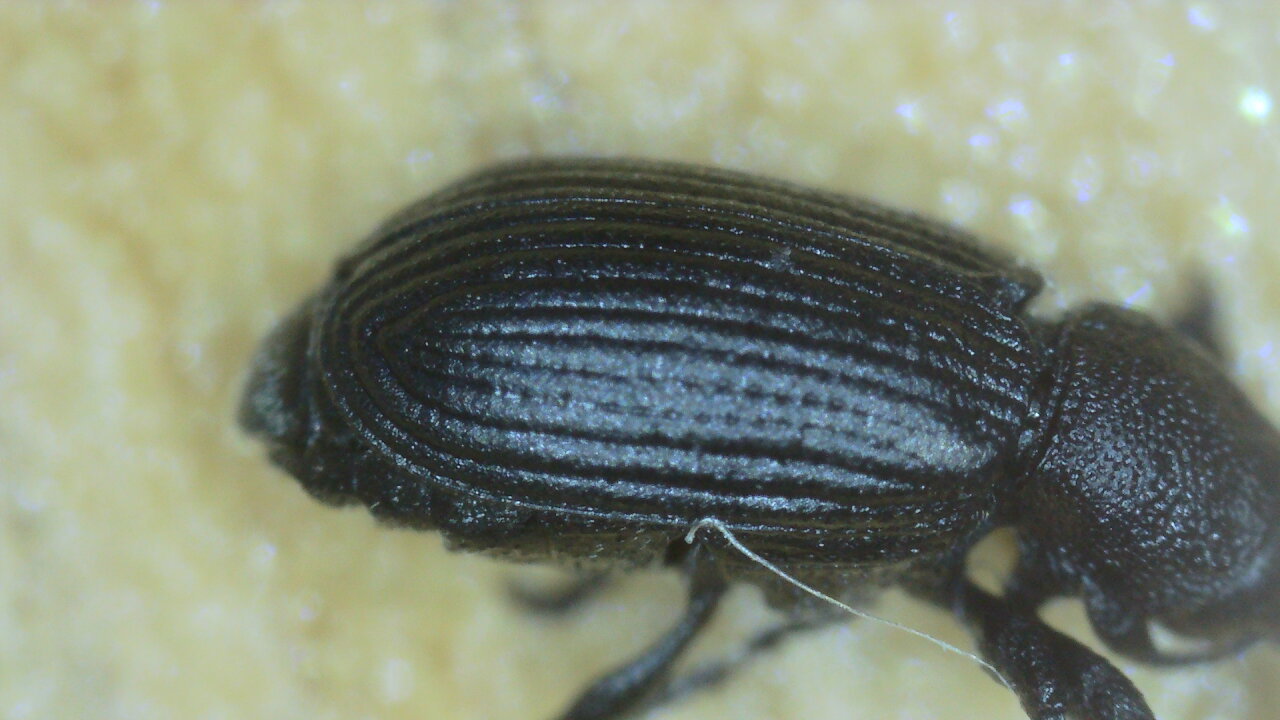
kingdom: Animalia
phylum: Arthropoda
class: Insecta
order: Coleoptera
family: Curculionidae
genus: Magdalis
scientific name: Magdalis armigera
